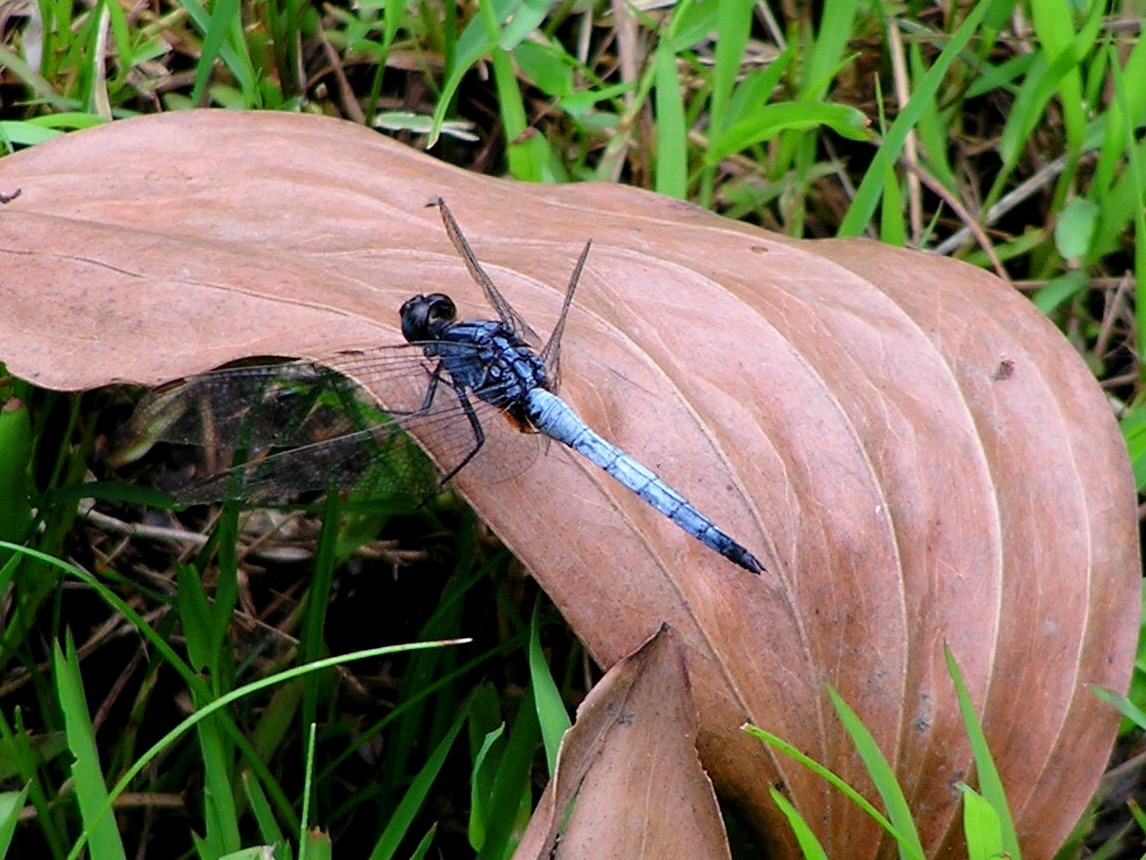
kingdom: Animalia
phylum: Arthropoda
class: Insecta
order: Odonata
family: Libellulidae
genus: Orthetrum
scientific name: Orthetrum glaucum
